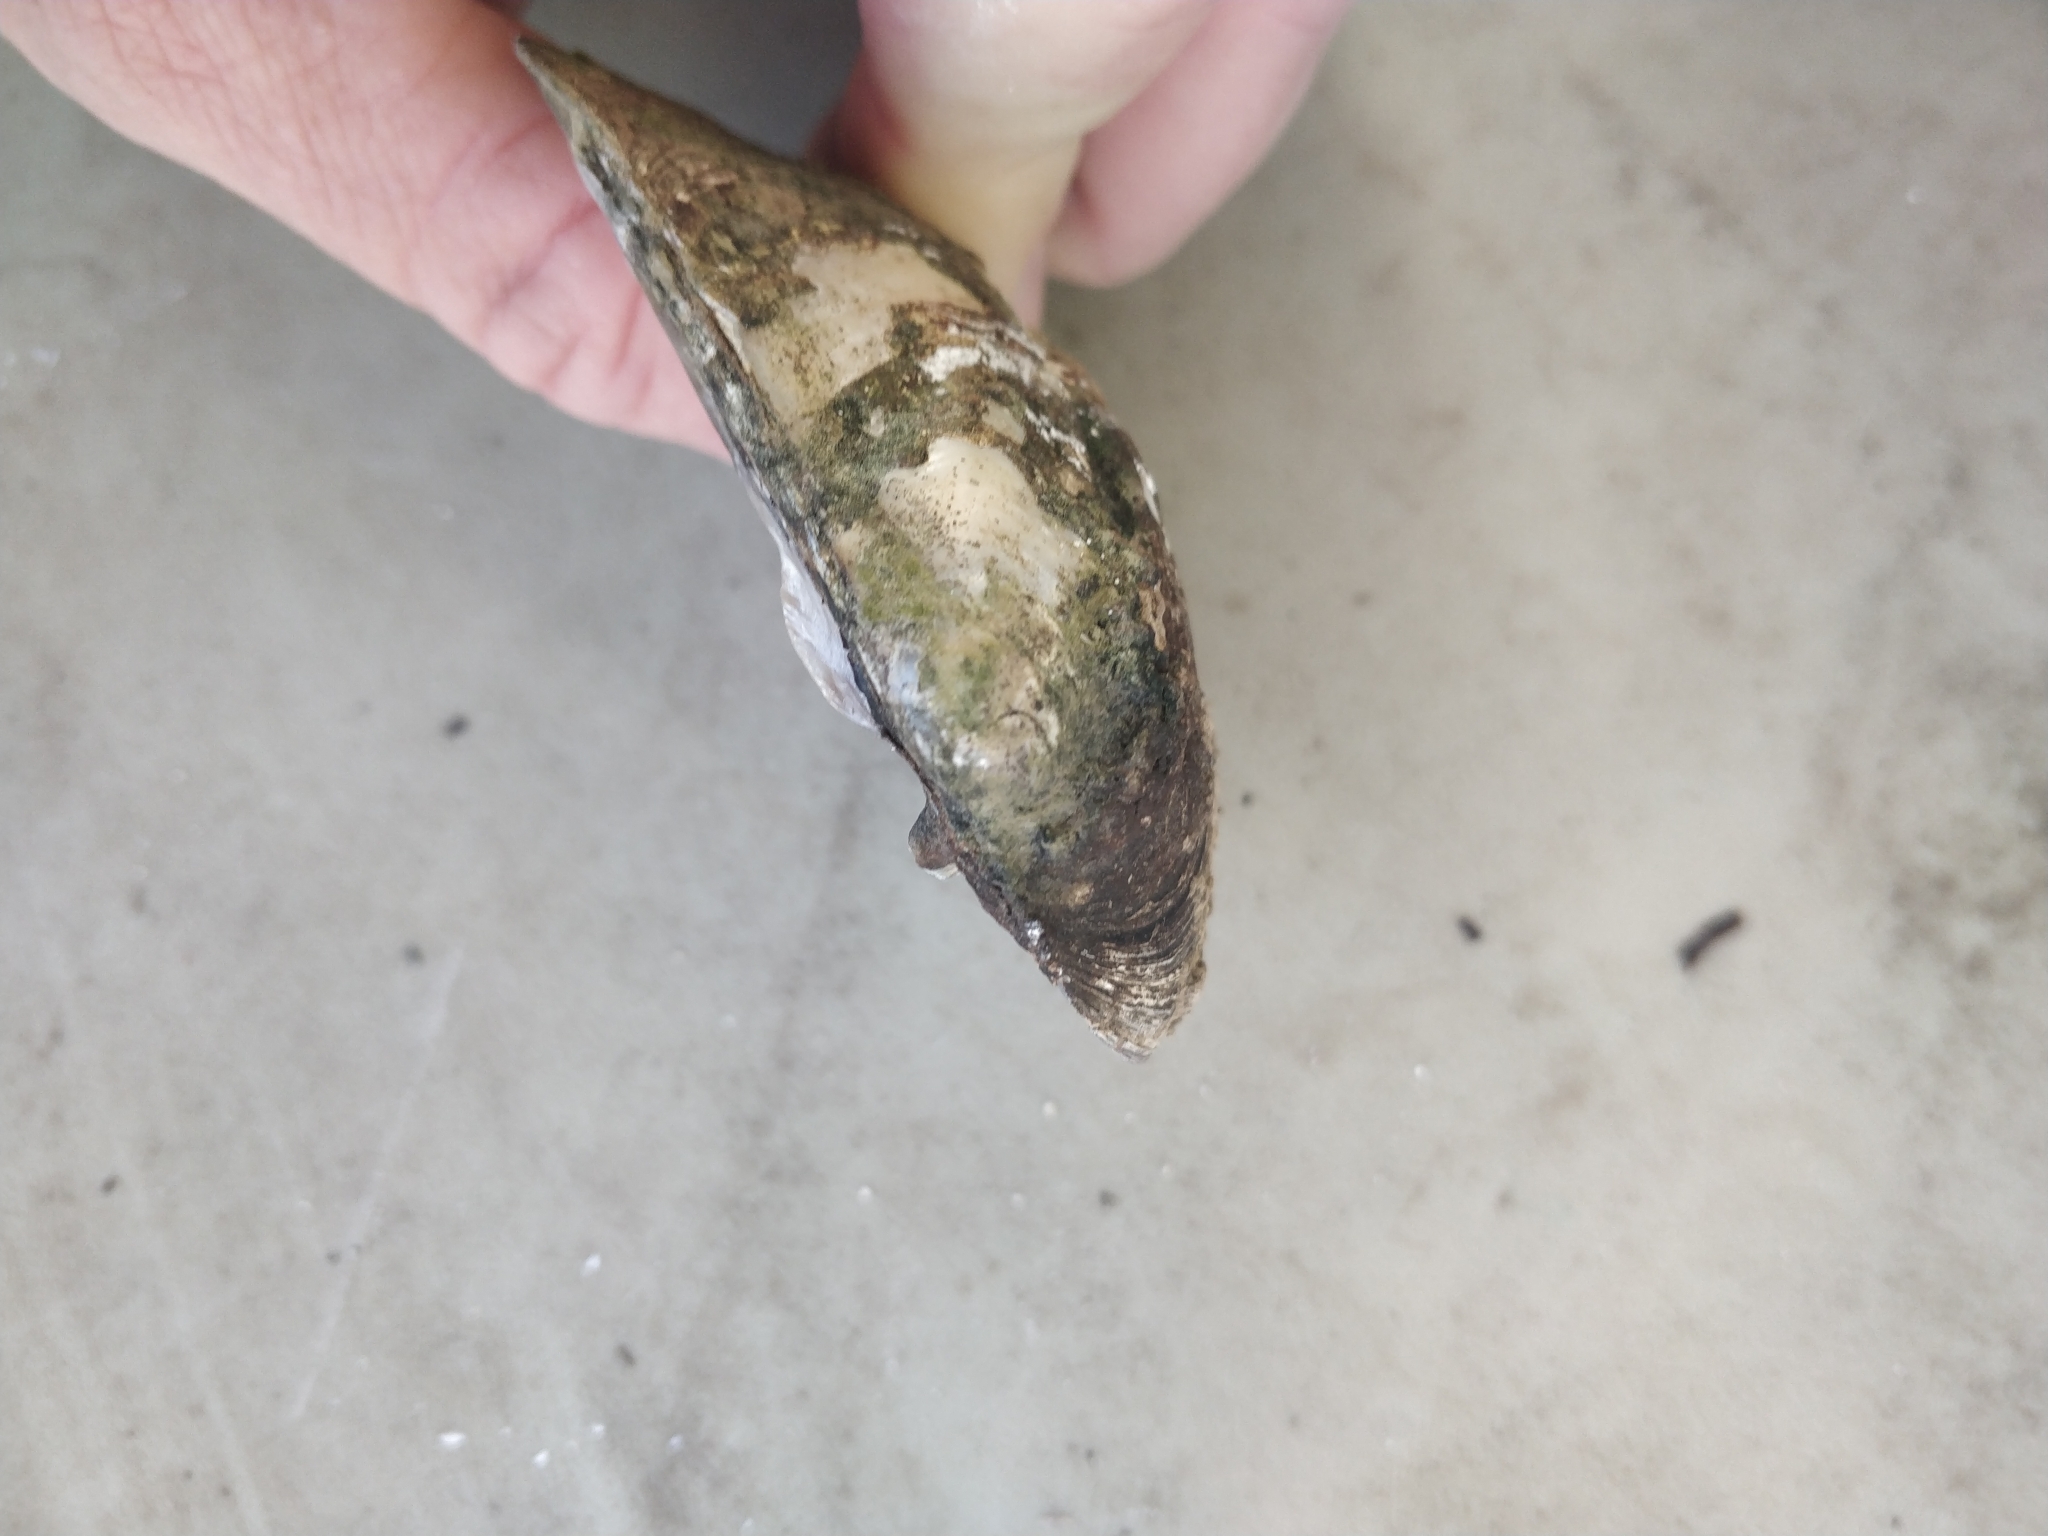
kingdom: Animalia
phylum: Mollusca
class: Bivalvia
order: Unionida
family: Unionidae
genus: Amblema
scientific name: Amblema plicata
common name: Threeridge
